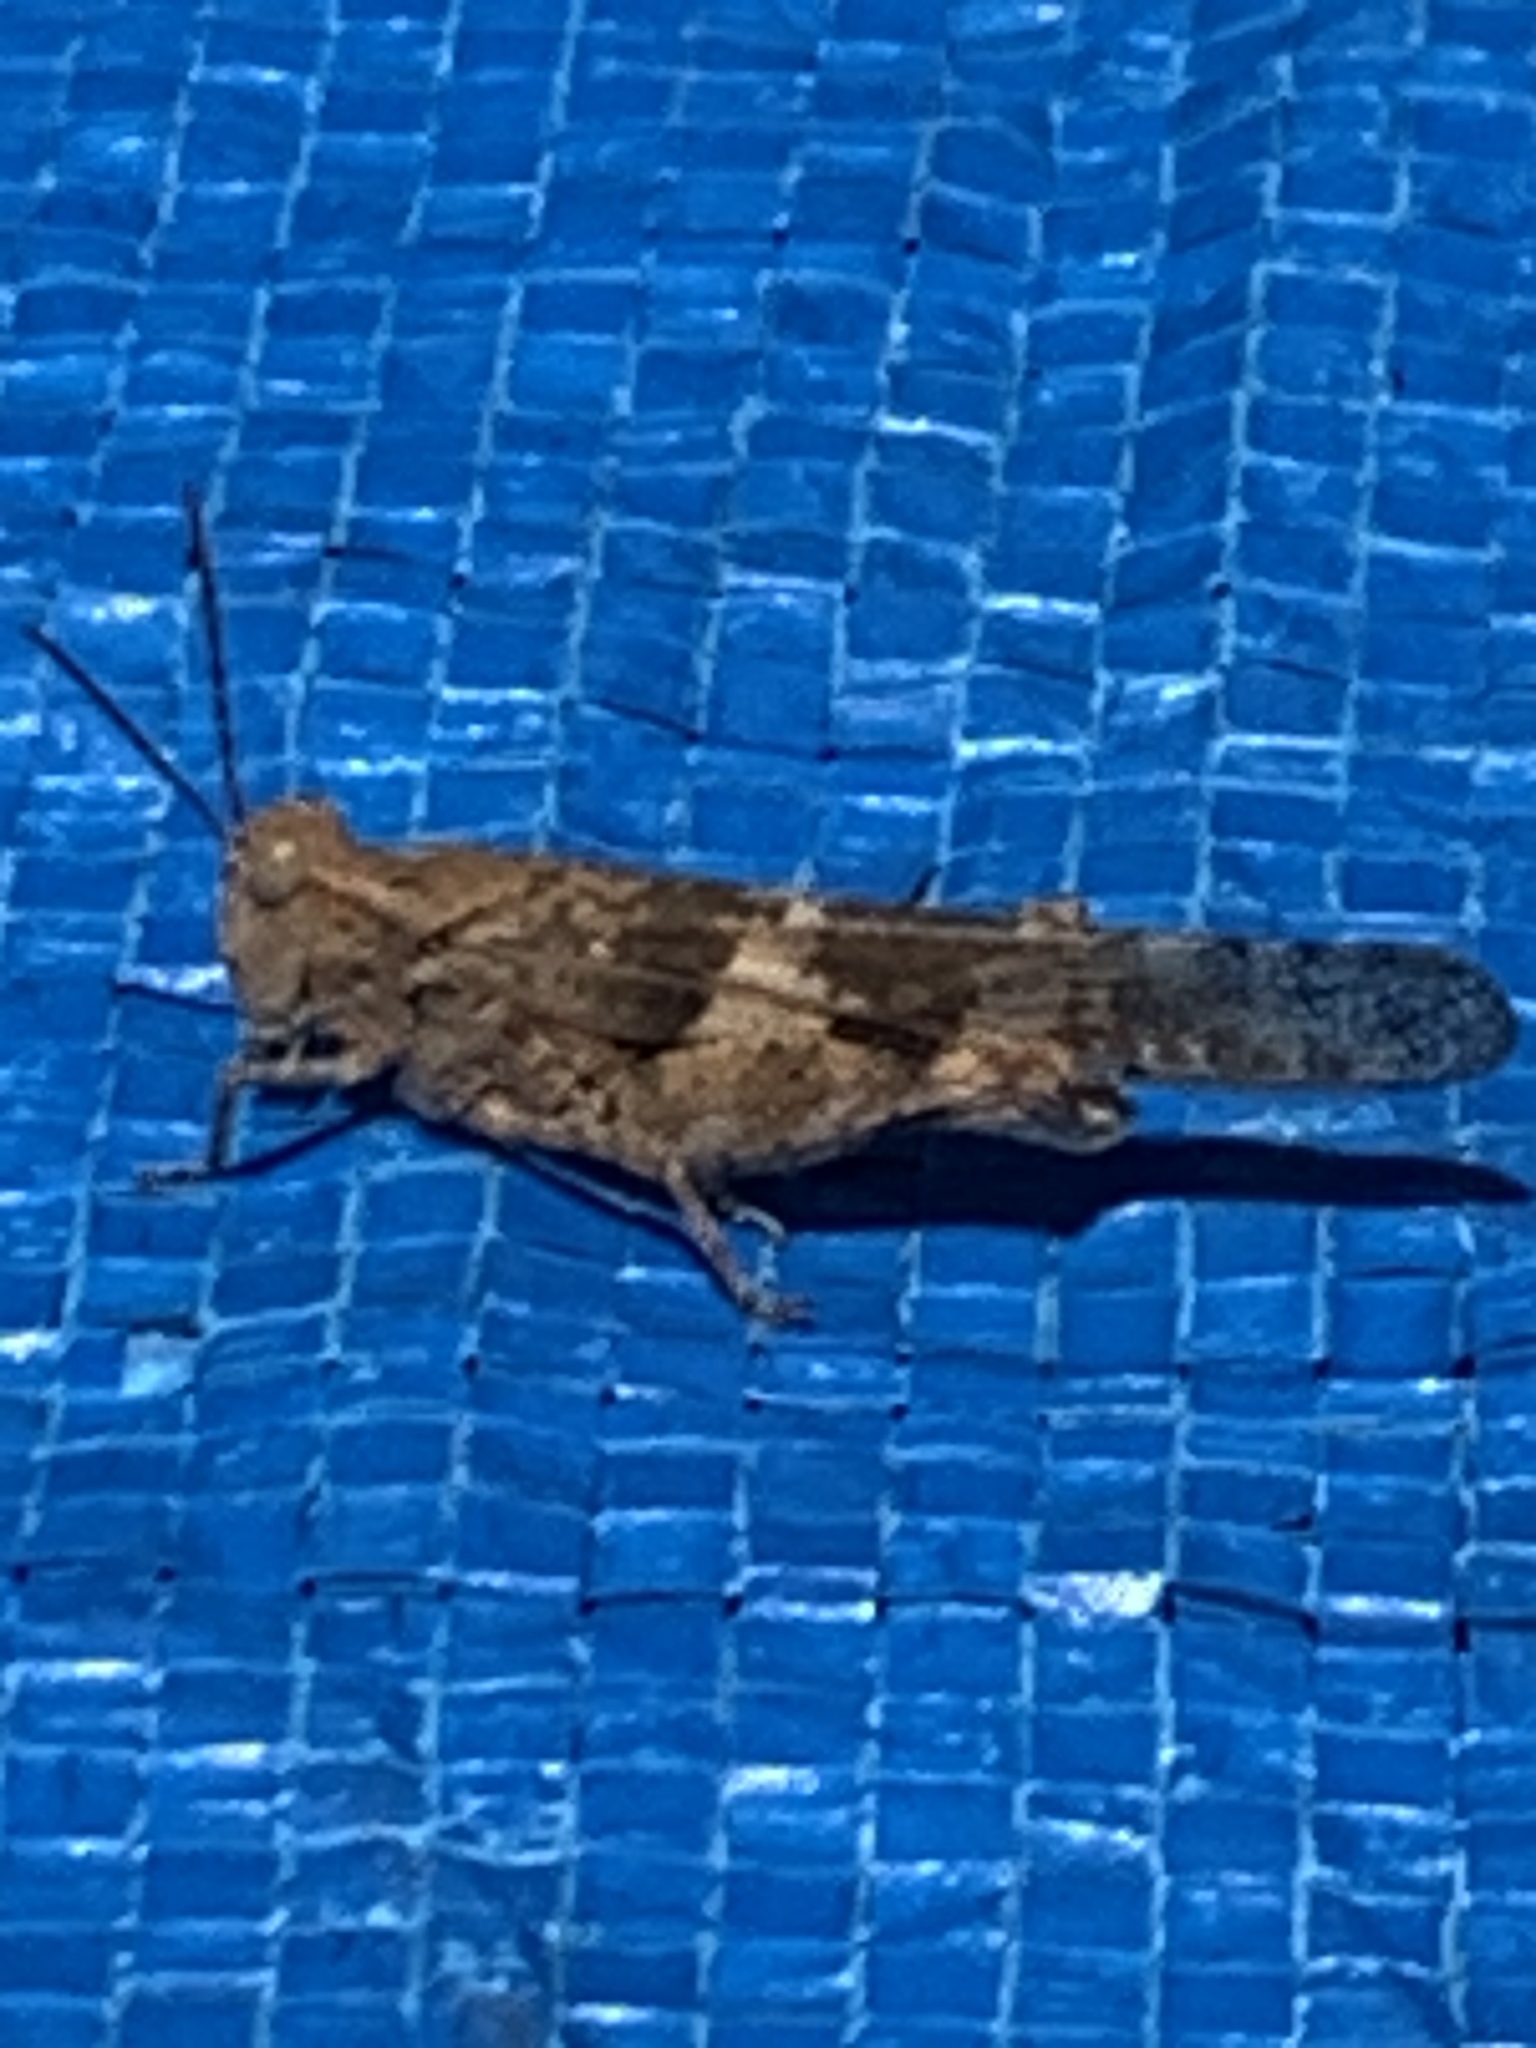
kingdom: Animalia
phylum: Arthropoda
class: Insecta
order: Orthoptera
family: Acrididae
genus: Trimerotropis
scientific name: Trimerotropis pallidipennis
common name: Pallid-winged grasshopper
